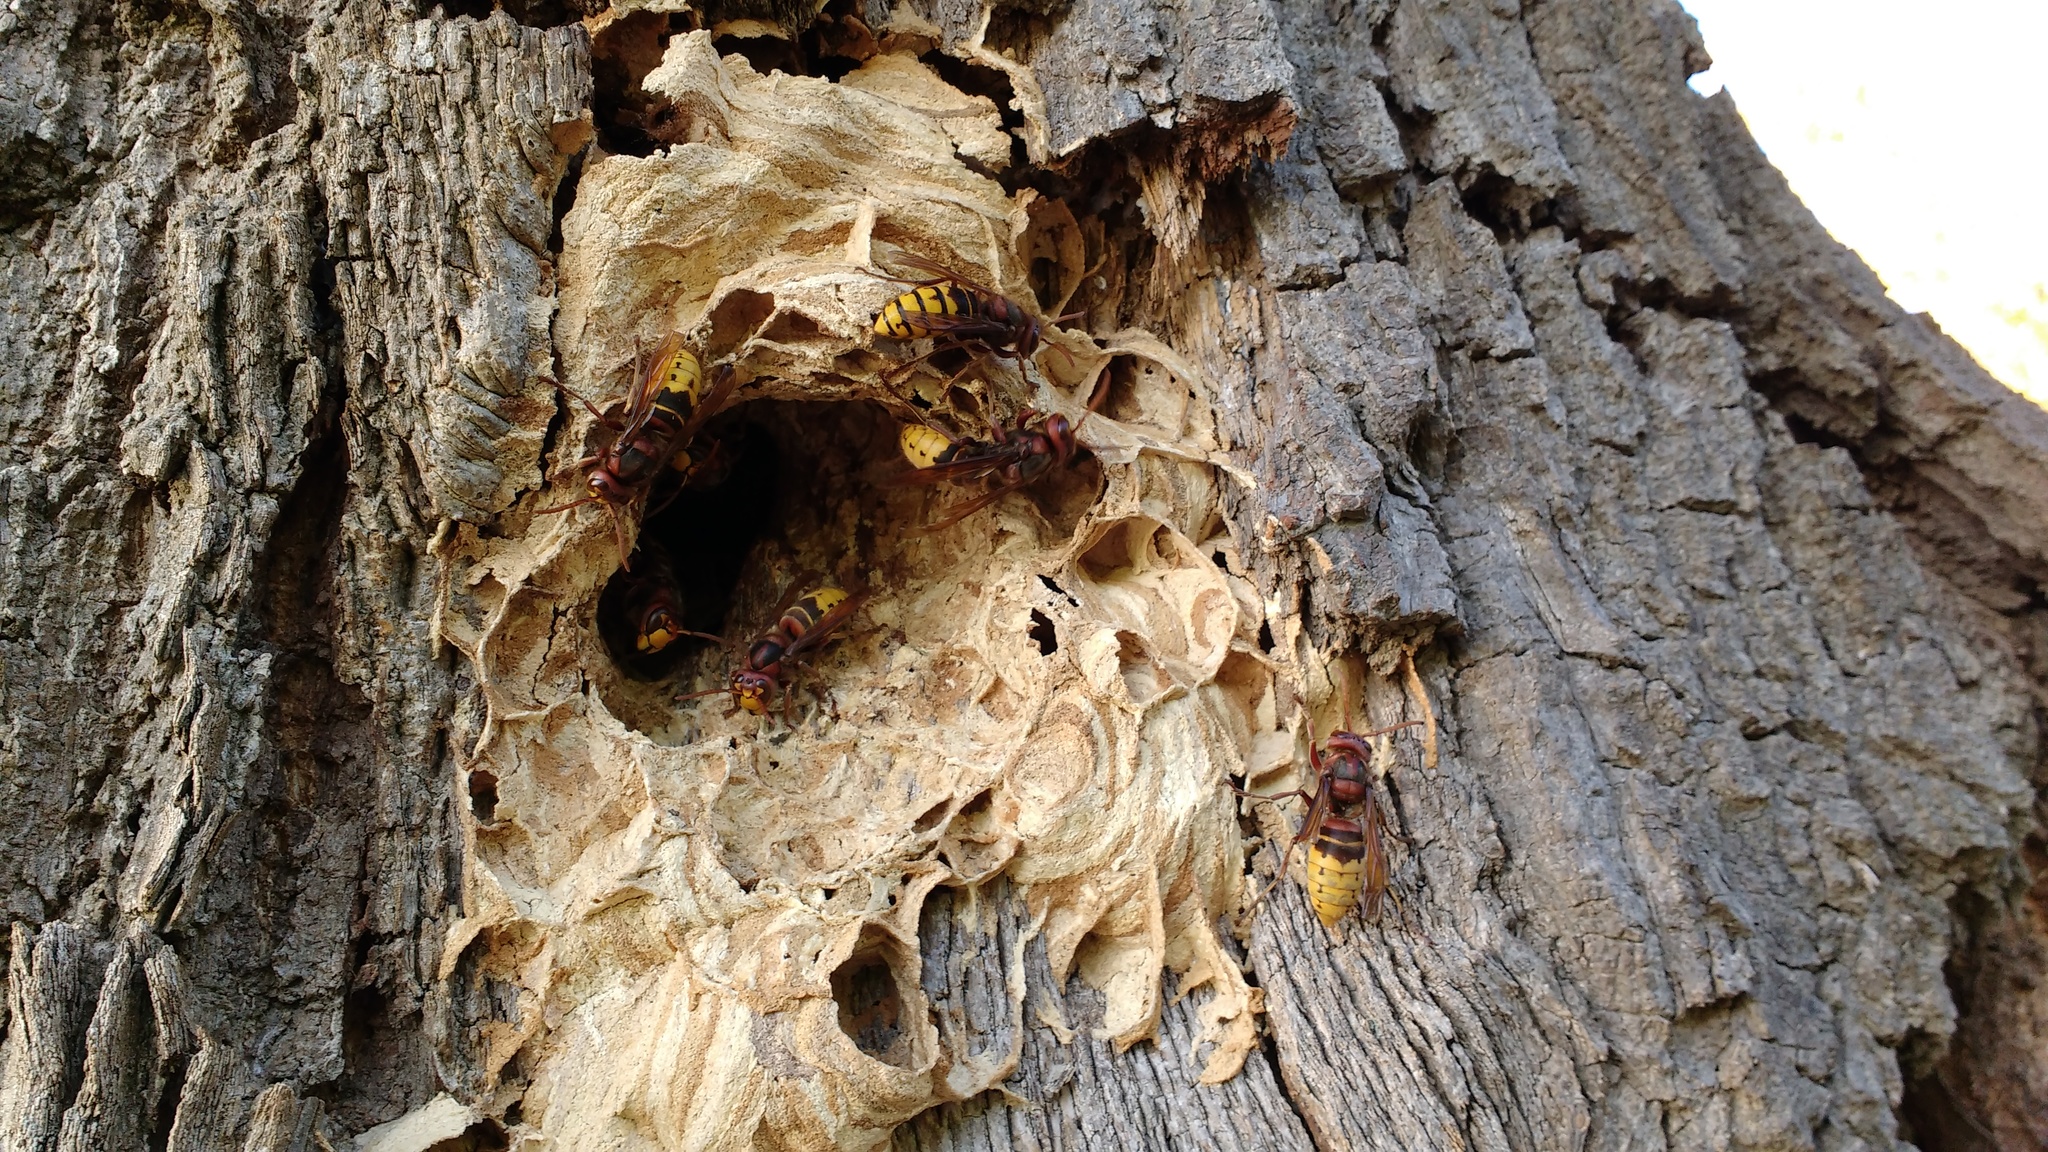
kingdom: Animalia
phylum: Arthropoda
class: Insecta
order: Hymenoptera
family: Vespidae
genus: Vespa
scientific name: Vespa crabro
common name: Hornet
